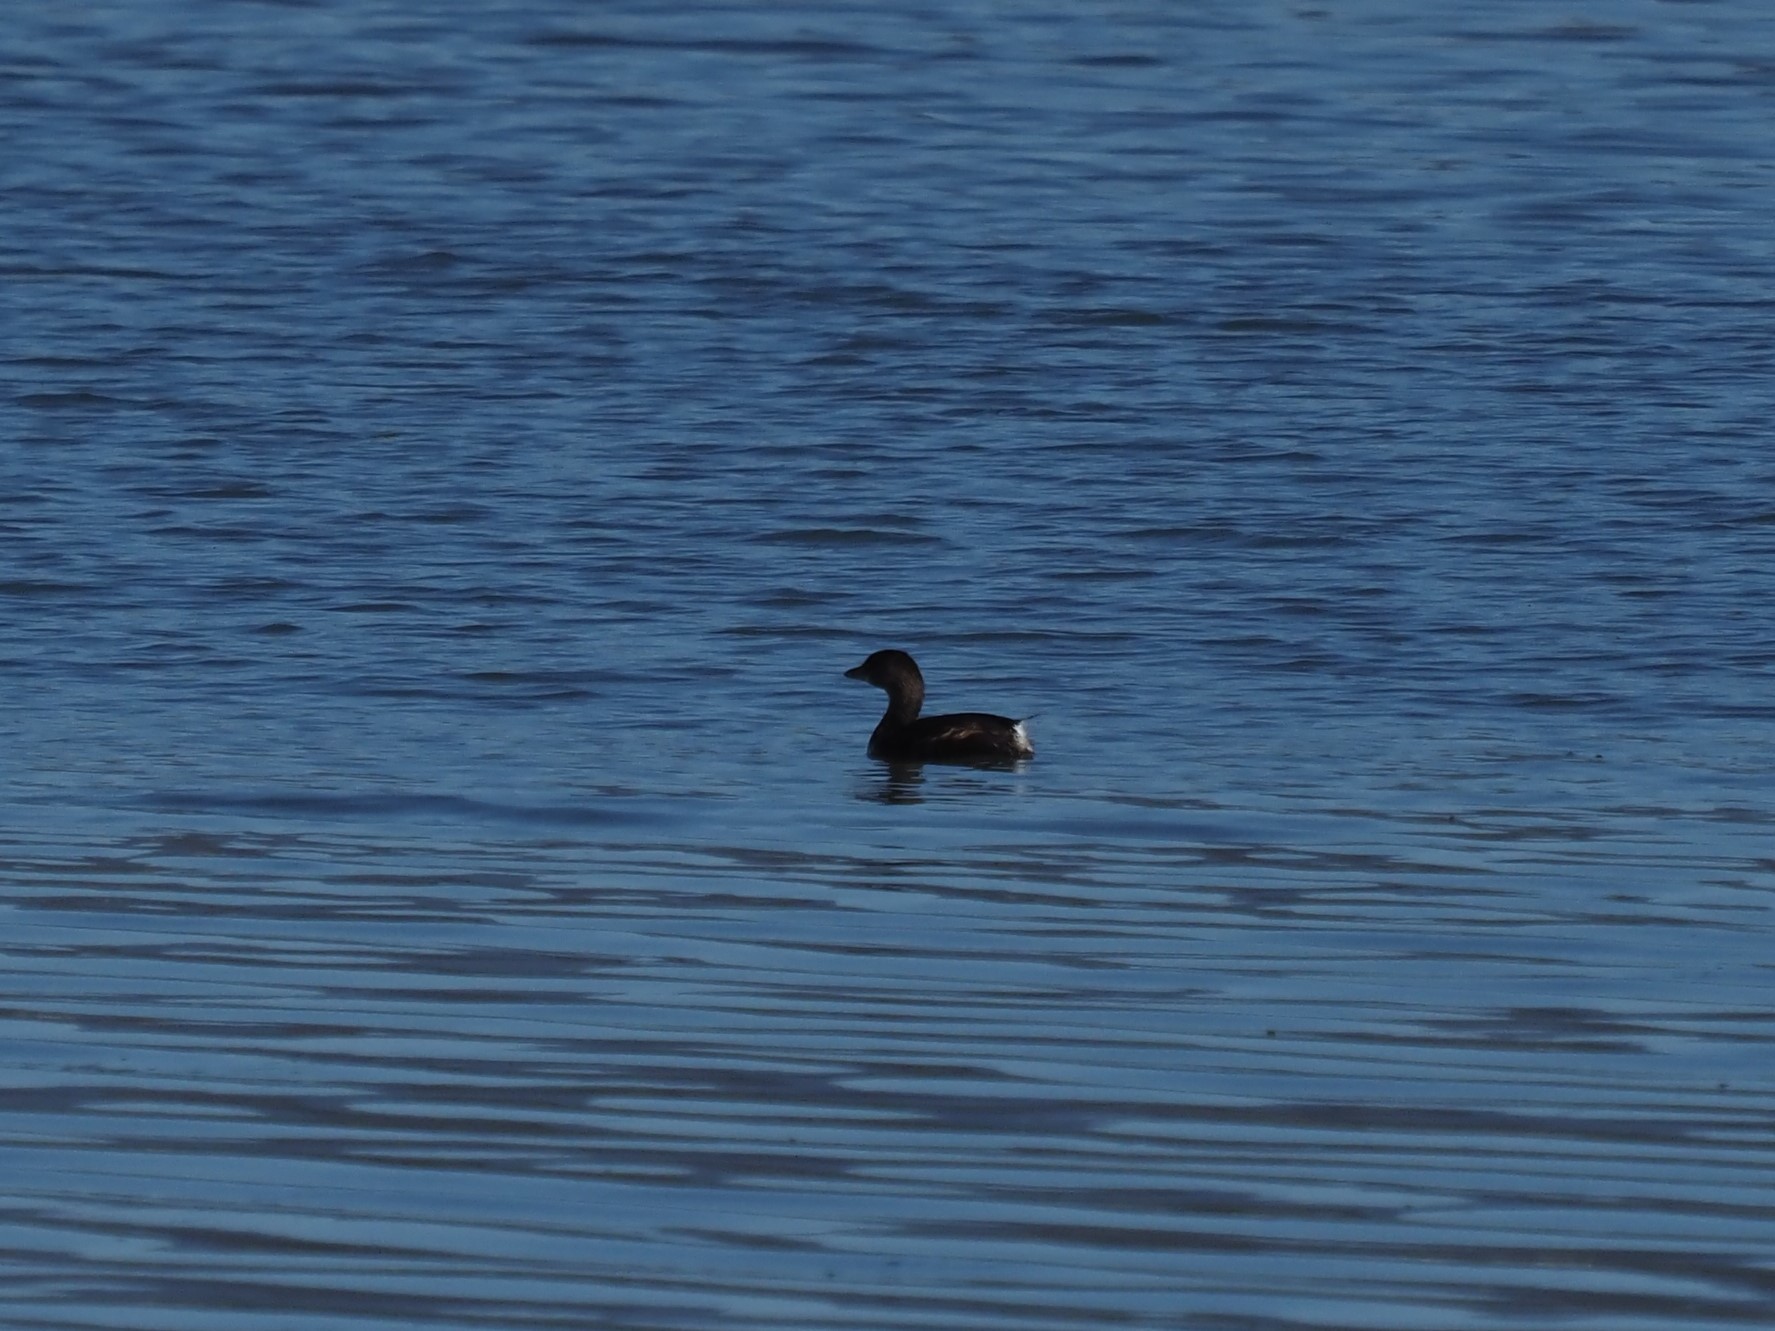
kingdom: Animalia
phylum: Chordata
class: Aves
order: Podicipediformes
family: Podicipedidae
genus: Podilymbus
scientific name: Podilymbus podiceps
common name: Pied-billed grebe
